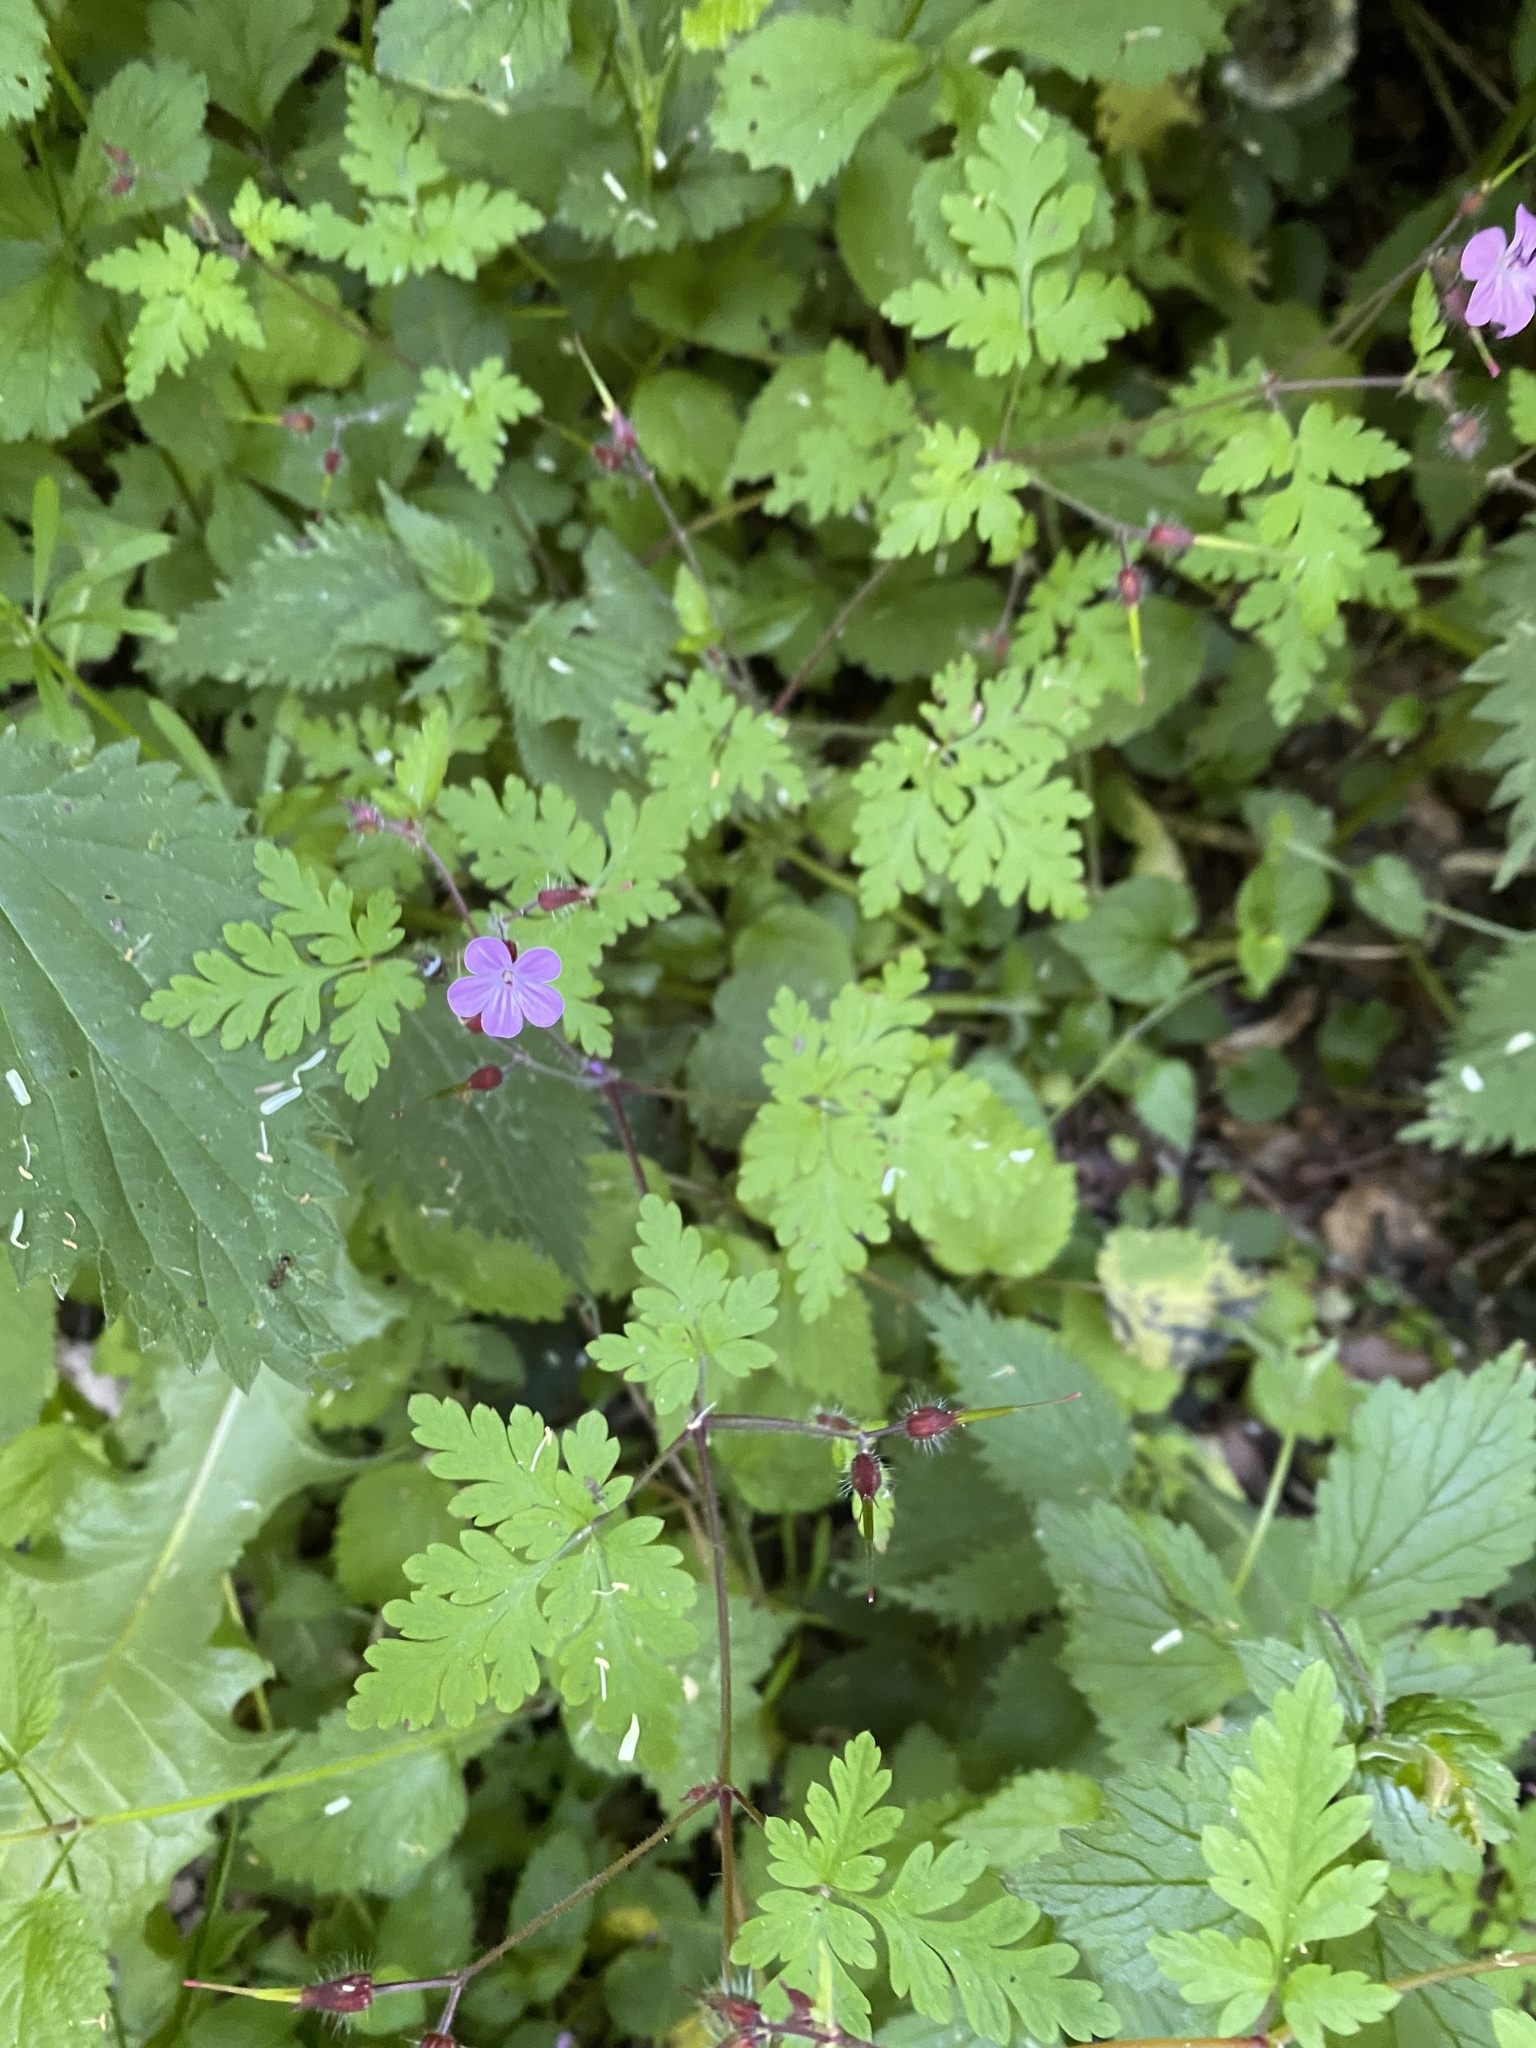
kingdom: Plantae
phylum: Tracheophyta
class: Magnoliopsida
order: Geraniales
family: Geraniaceae
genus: Geranium
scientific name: Geranium robertianum
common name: Herb-robert
